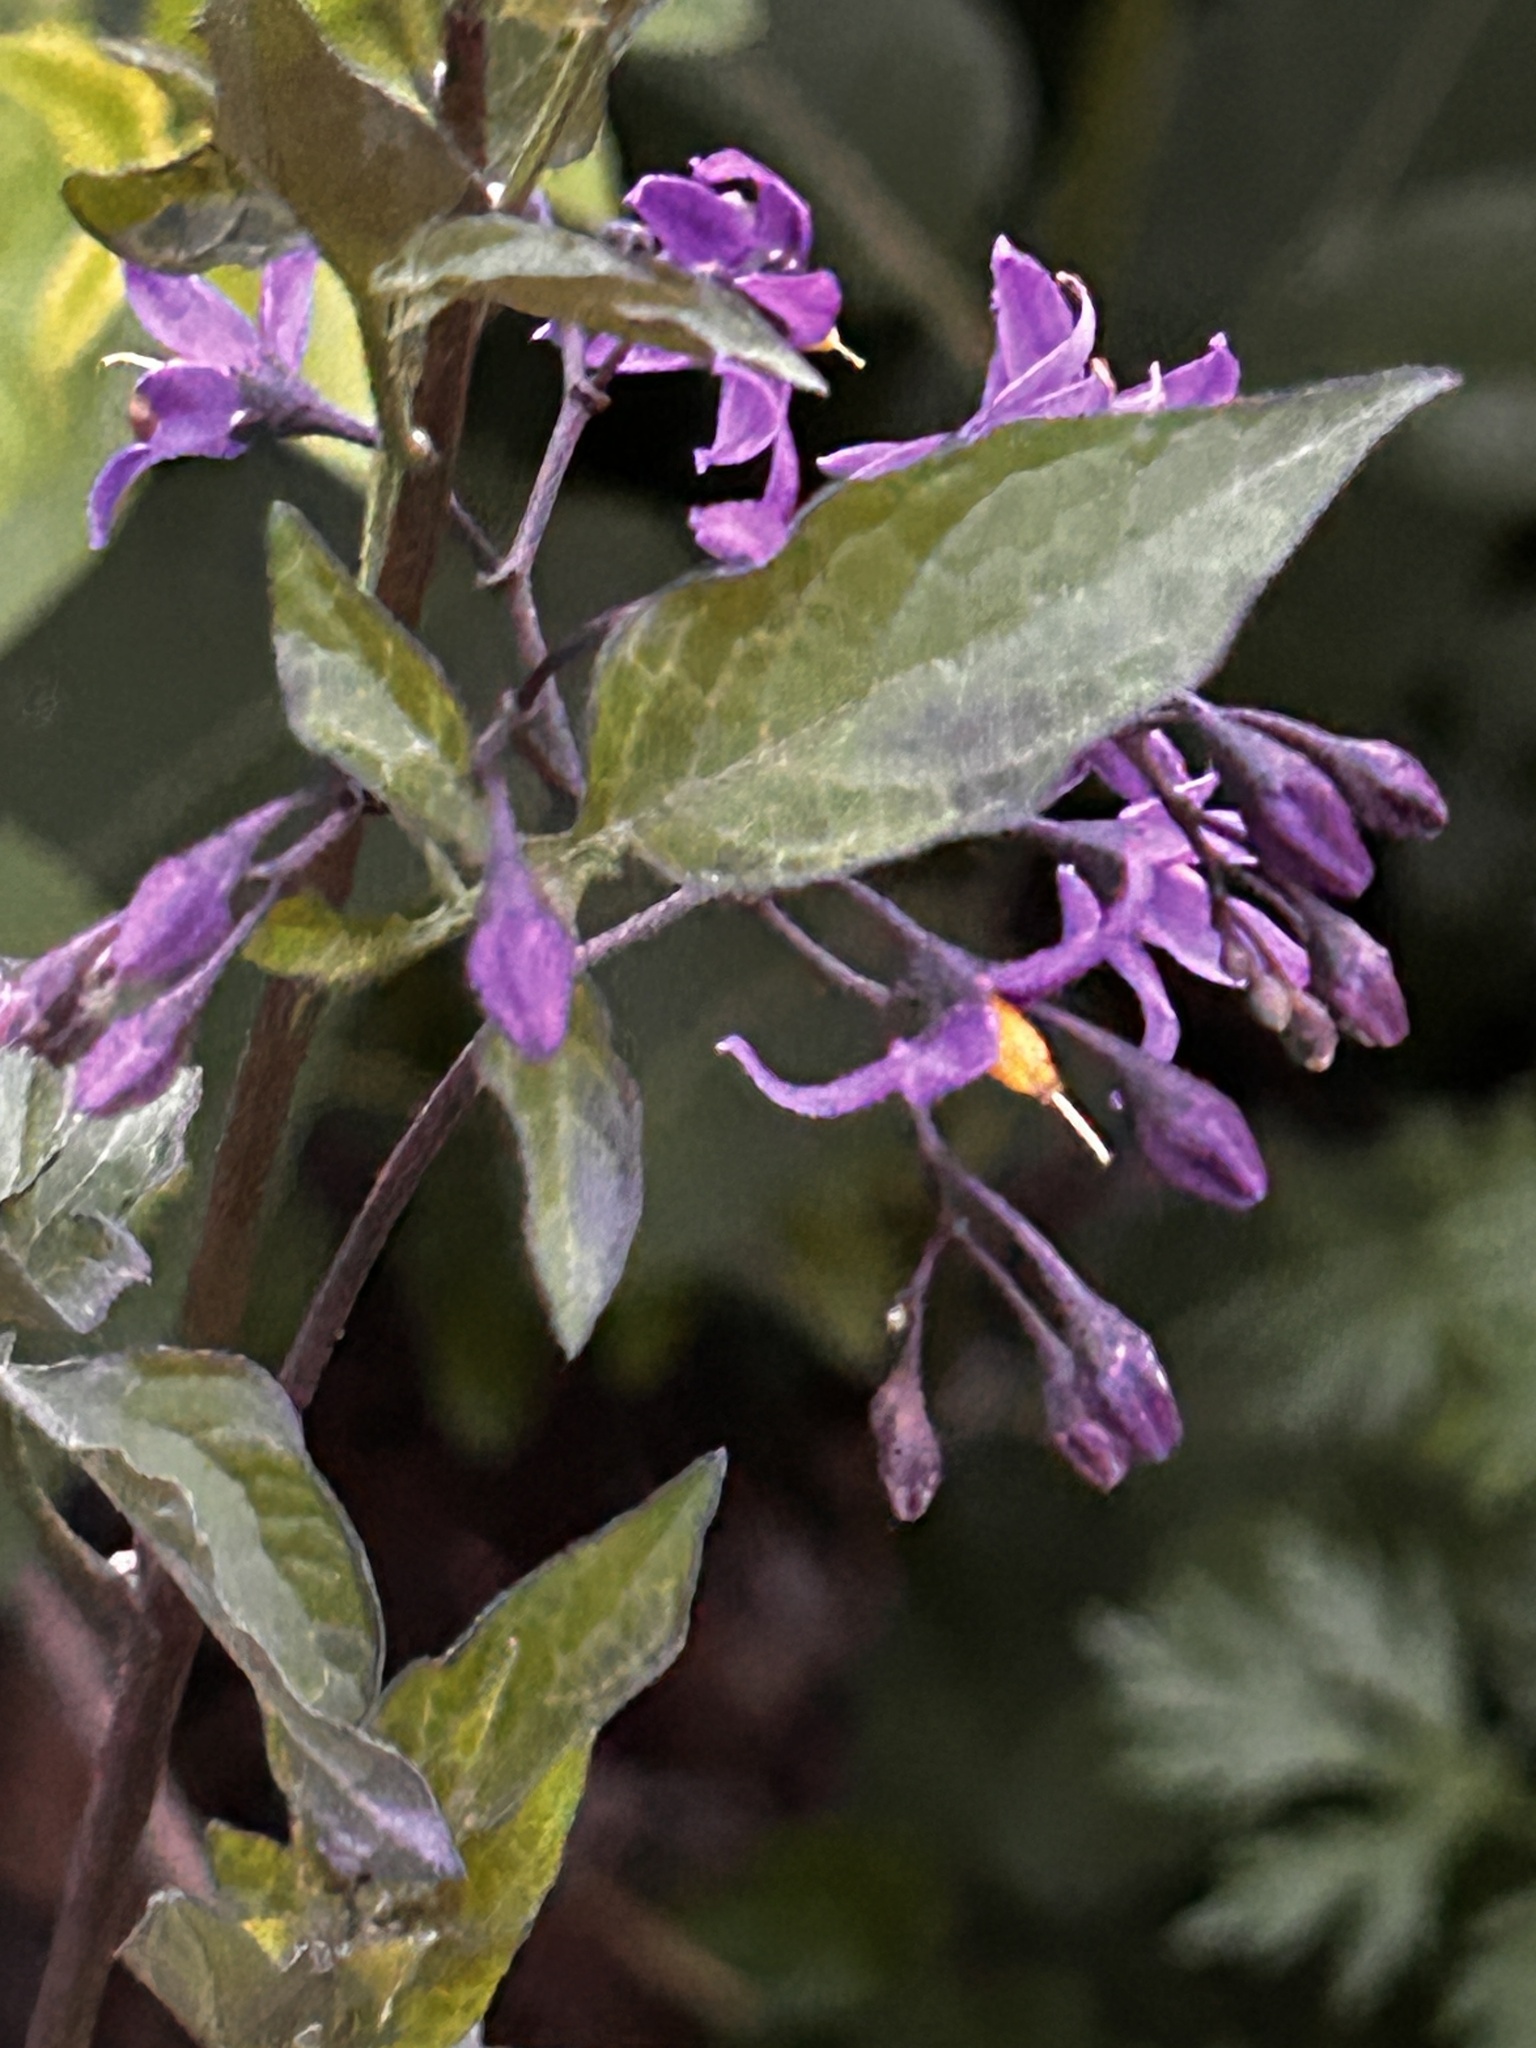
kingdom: Plantae
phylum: Tracheophyta
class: Magnoliopsida
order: Solanales
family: Solanaceae
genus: Solanum
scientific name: Solanum dulcamara
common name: Climbing nightshade
